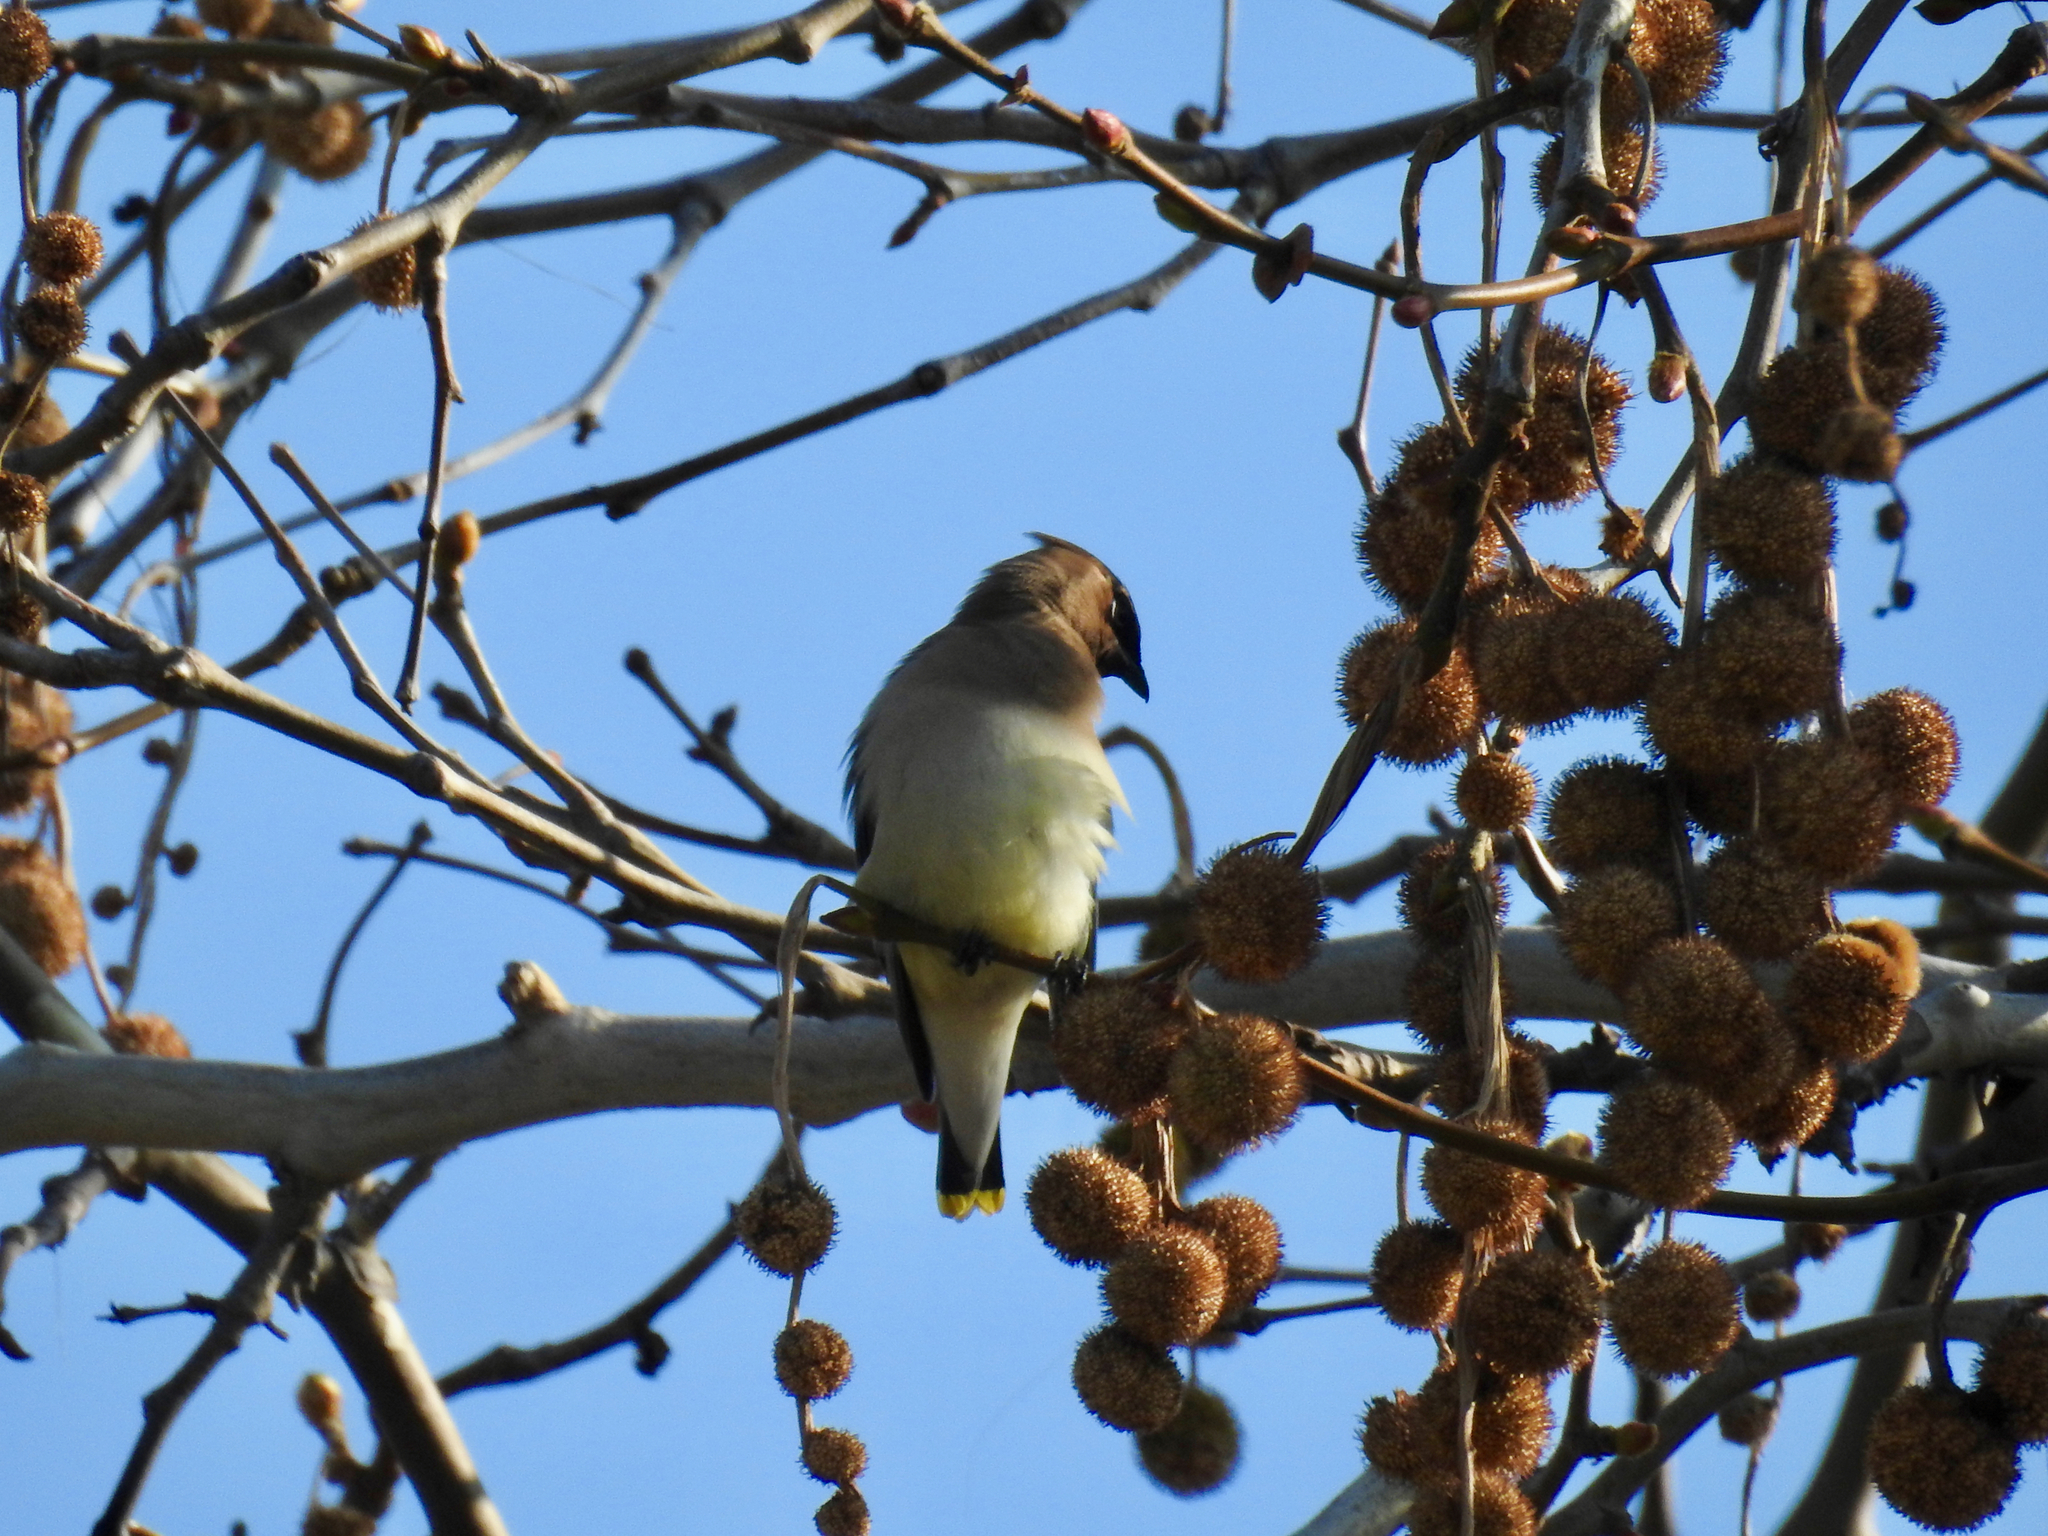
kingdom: Animalia
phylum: Chordata
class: Aves
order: Passeriformes
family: Bombycillidae
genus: Bombycilla
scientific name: Bombycilla cedrorum
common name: Cedar waxwing
